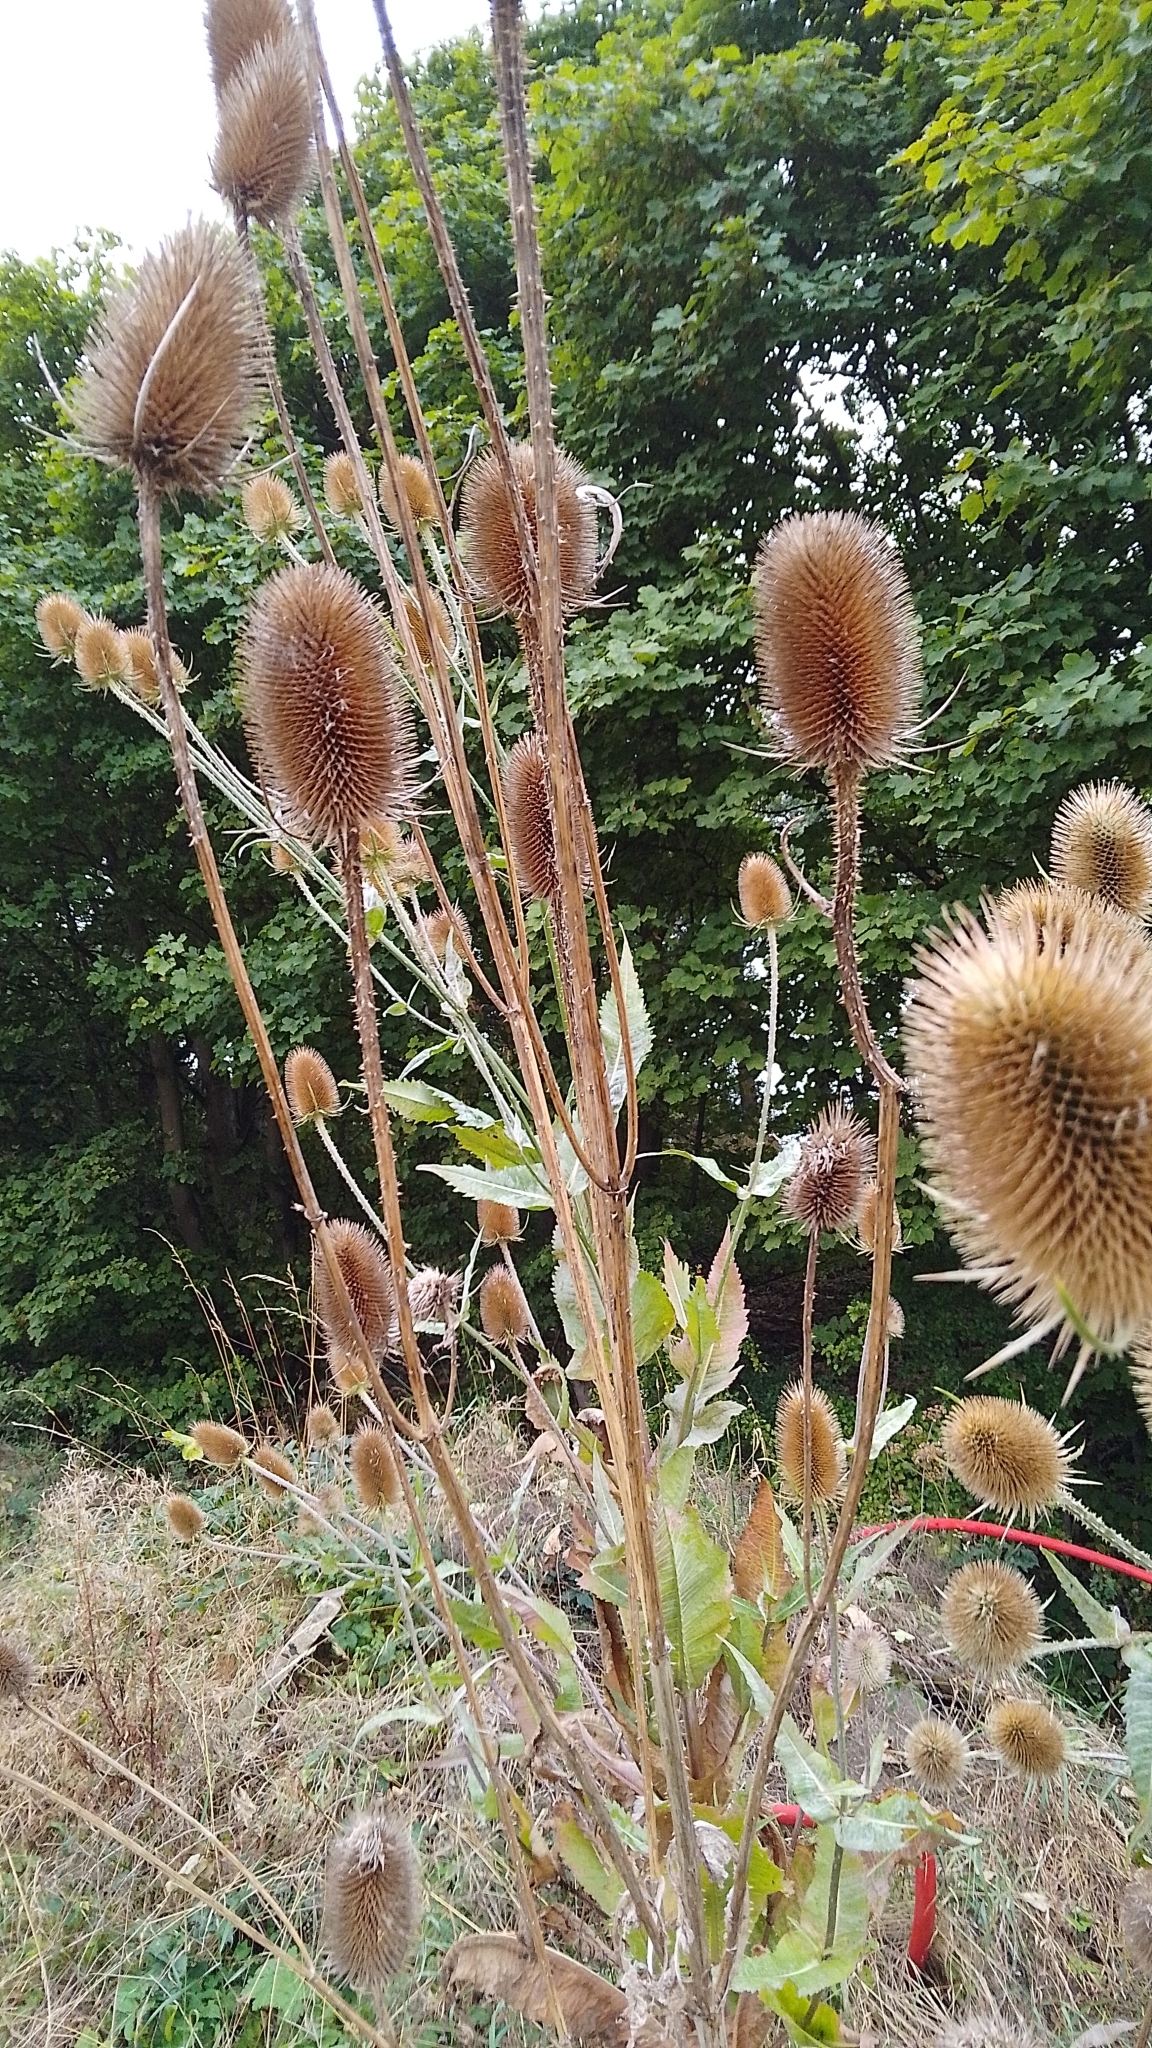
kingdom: Plantae
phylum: Tracheophyta
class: Magnoliopsida
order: Dipsacales
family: Caprifoliaceae
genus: Dipsacus
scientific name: Dipsacus fullonum
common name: Teasel
